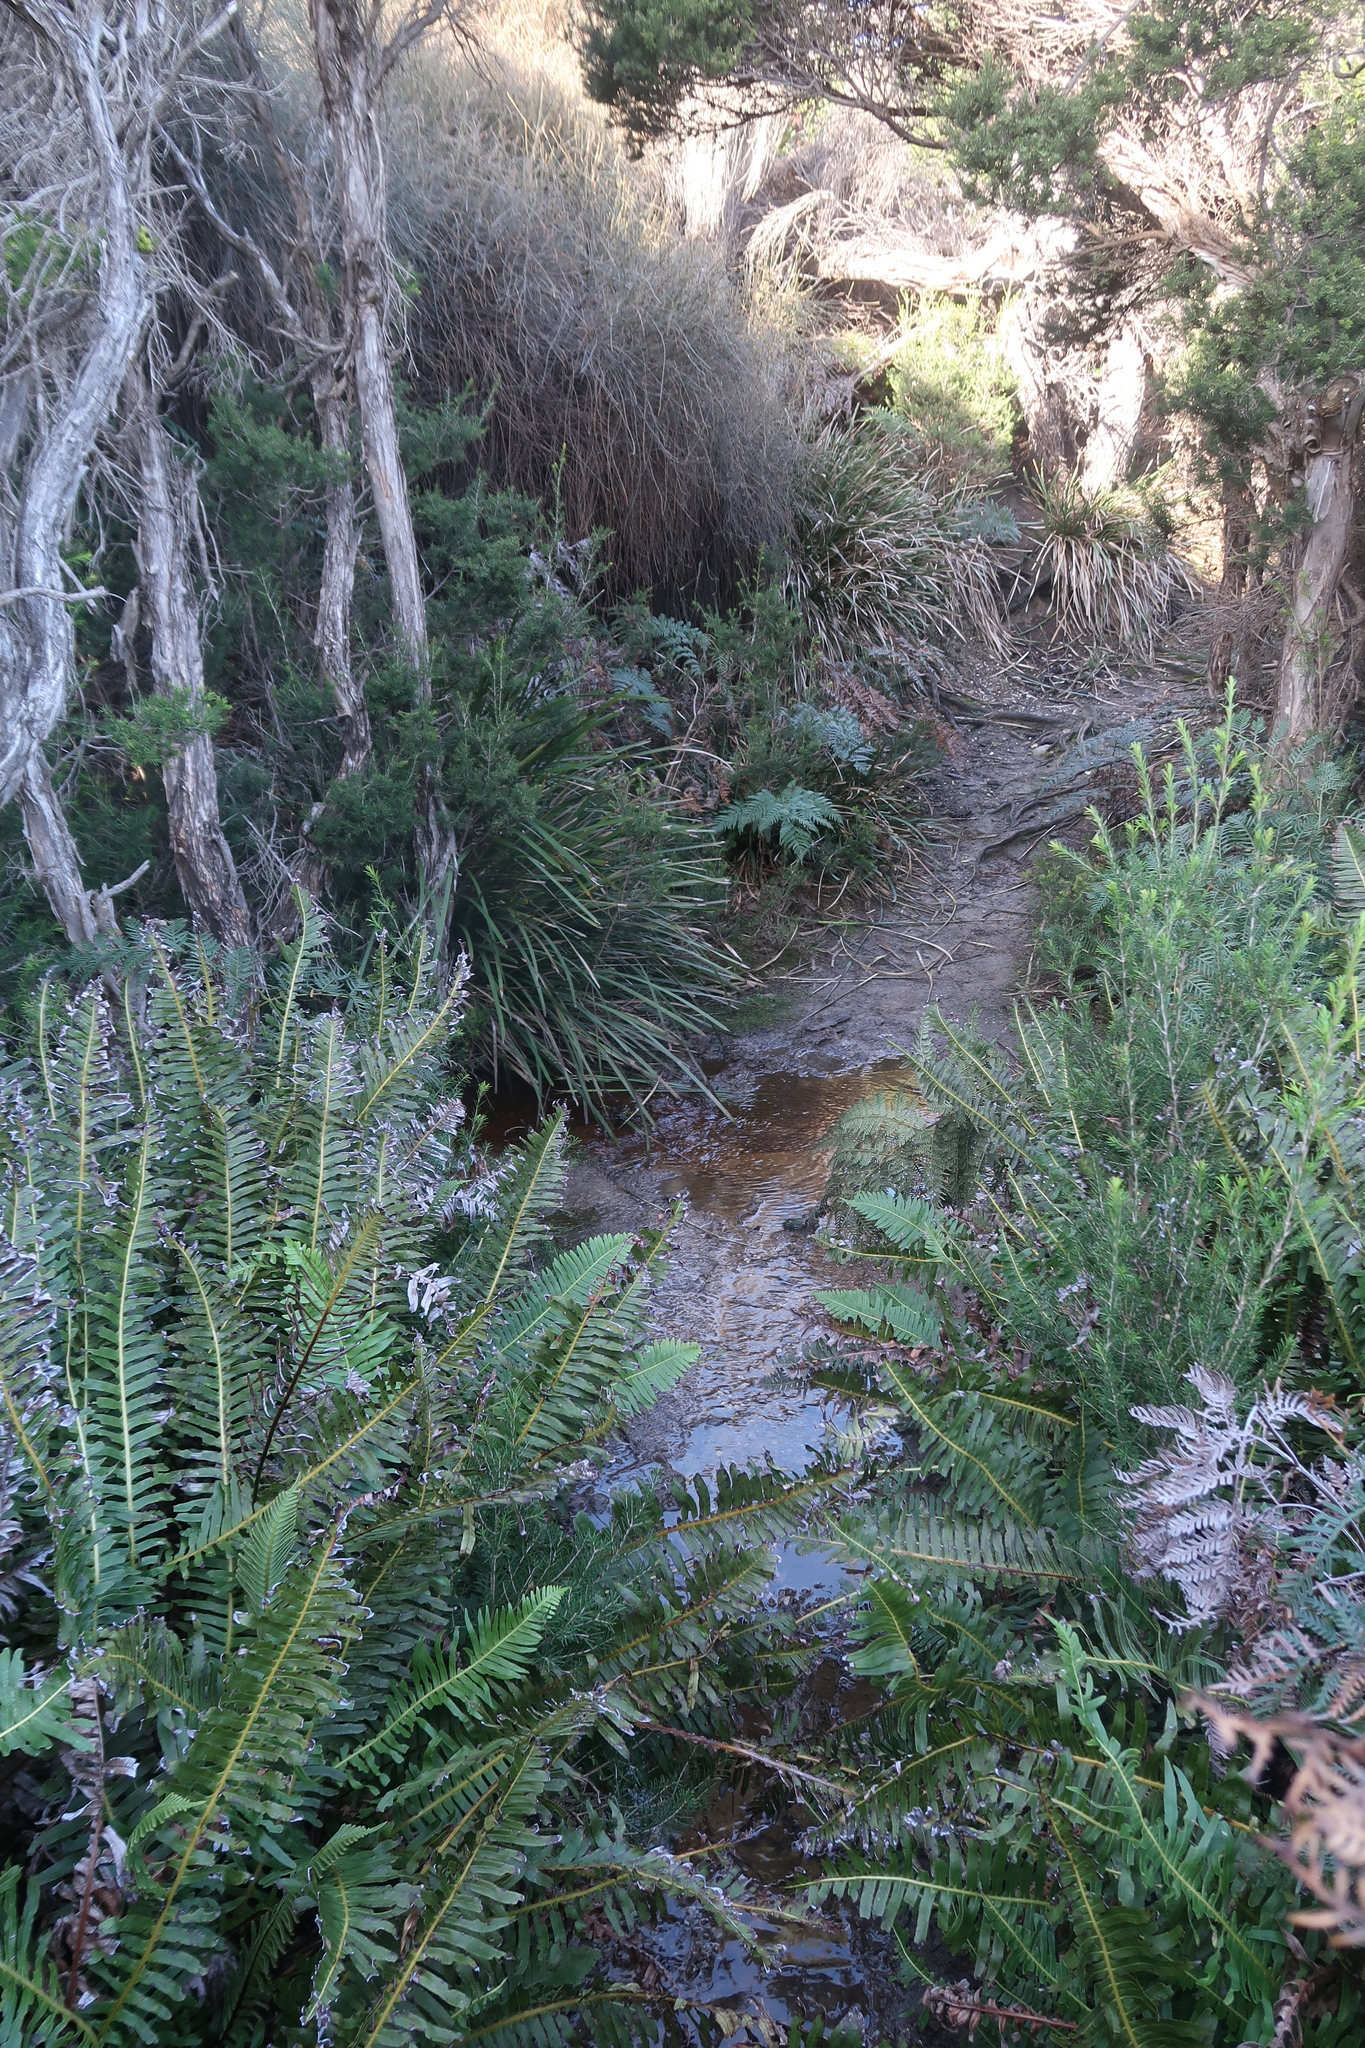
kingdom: Plantae
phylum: Tracheophyta
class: Polypodiopsida
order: Polypodiales
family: Blechnaceae
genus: Lomaria
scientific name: Lomaria nuda
